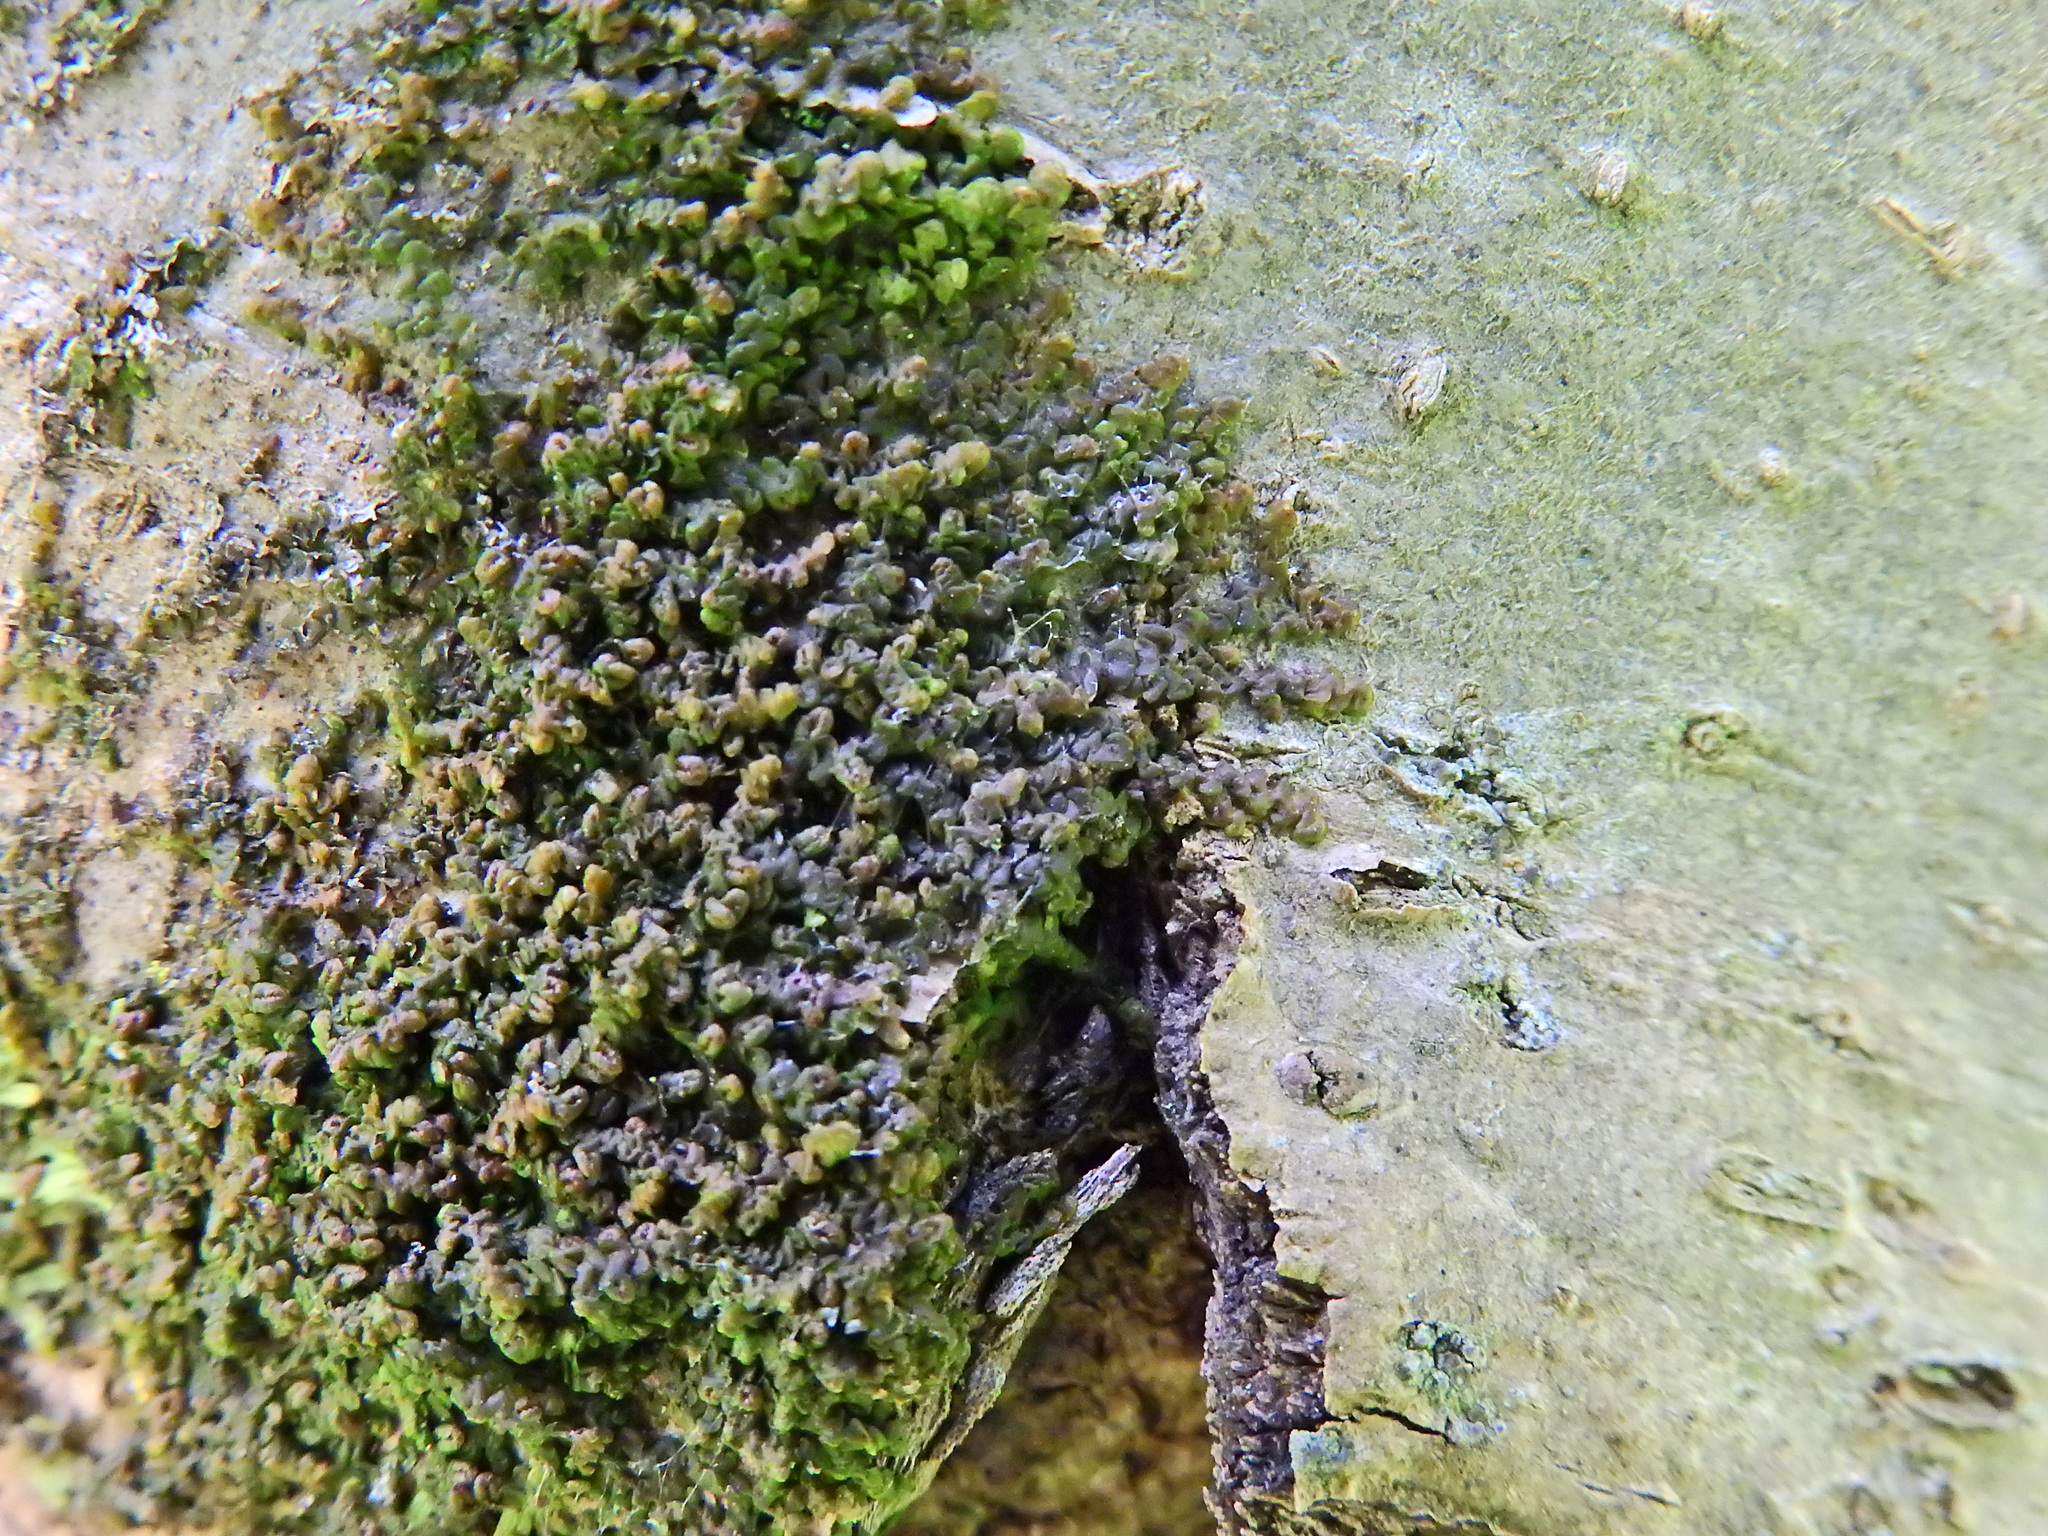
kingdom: Plantae
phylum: Marchantiophyta
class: Jungermanniopsida
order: Porellales
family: Frullaniaceae
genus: Frullania
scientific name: Frullania dilatata
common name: Dilated scalewort
